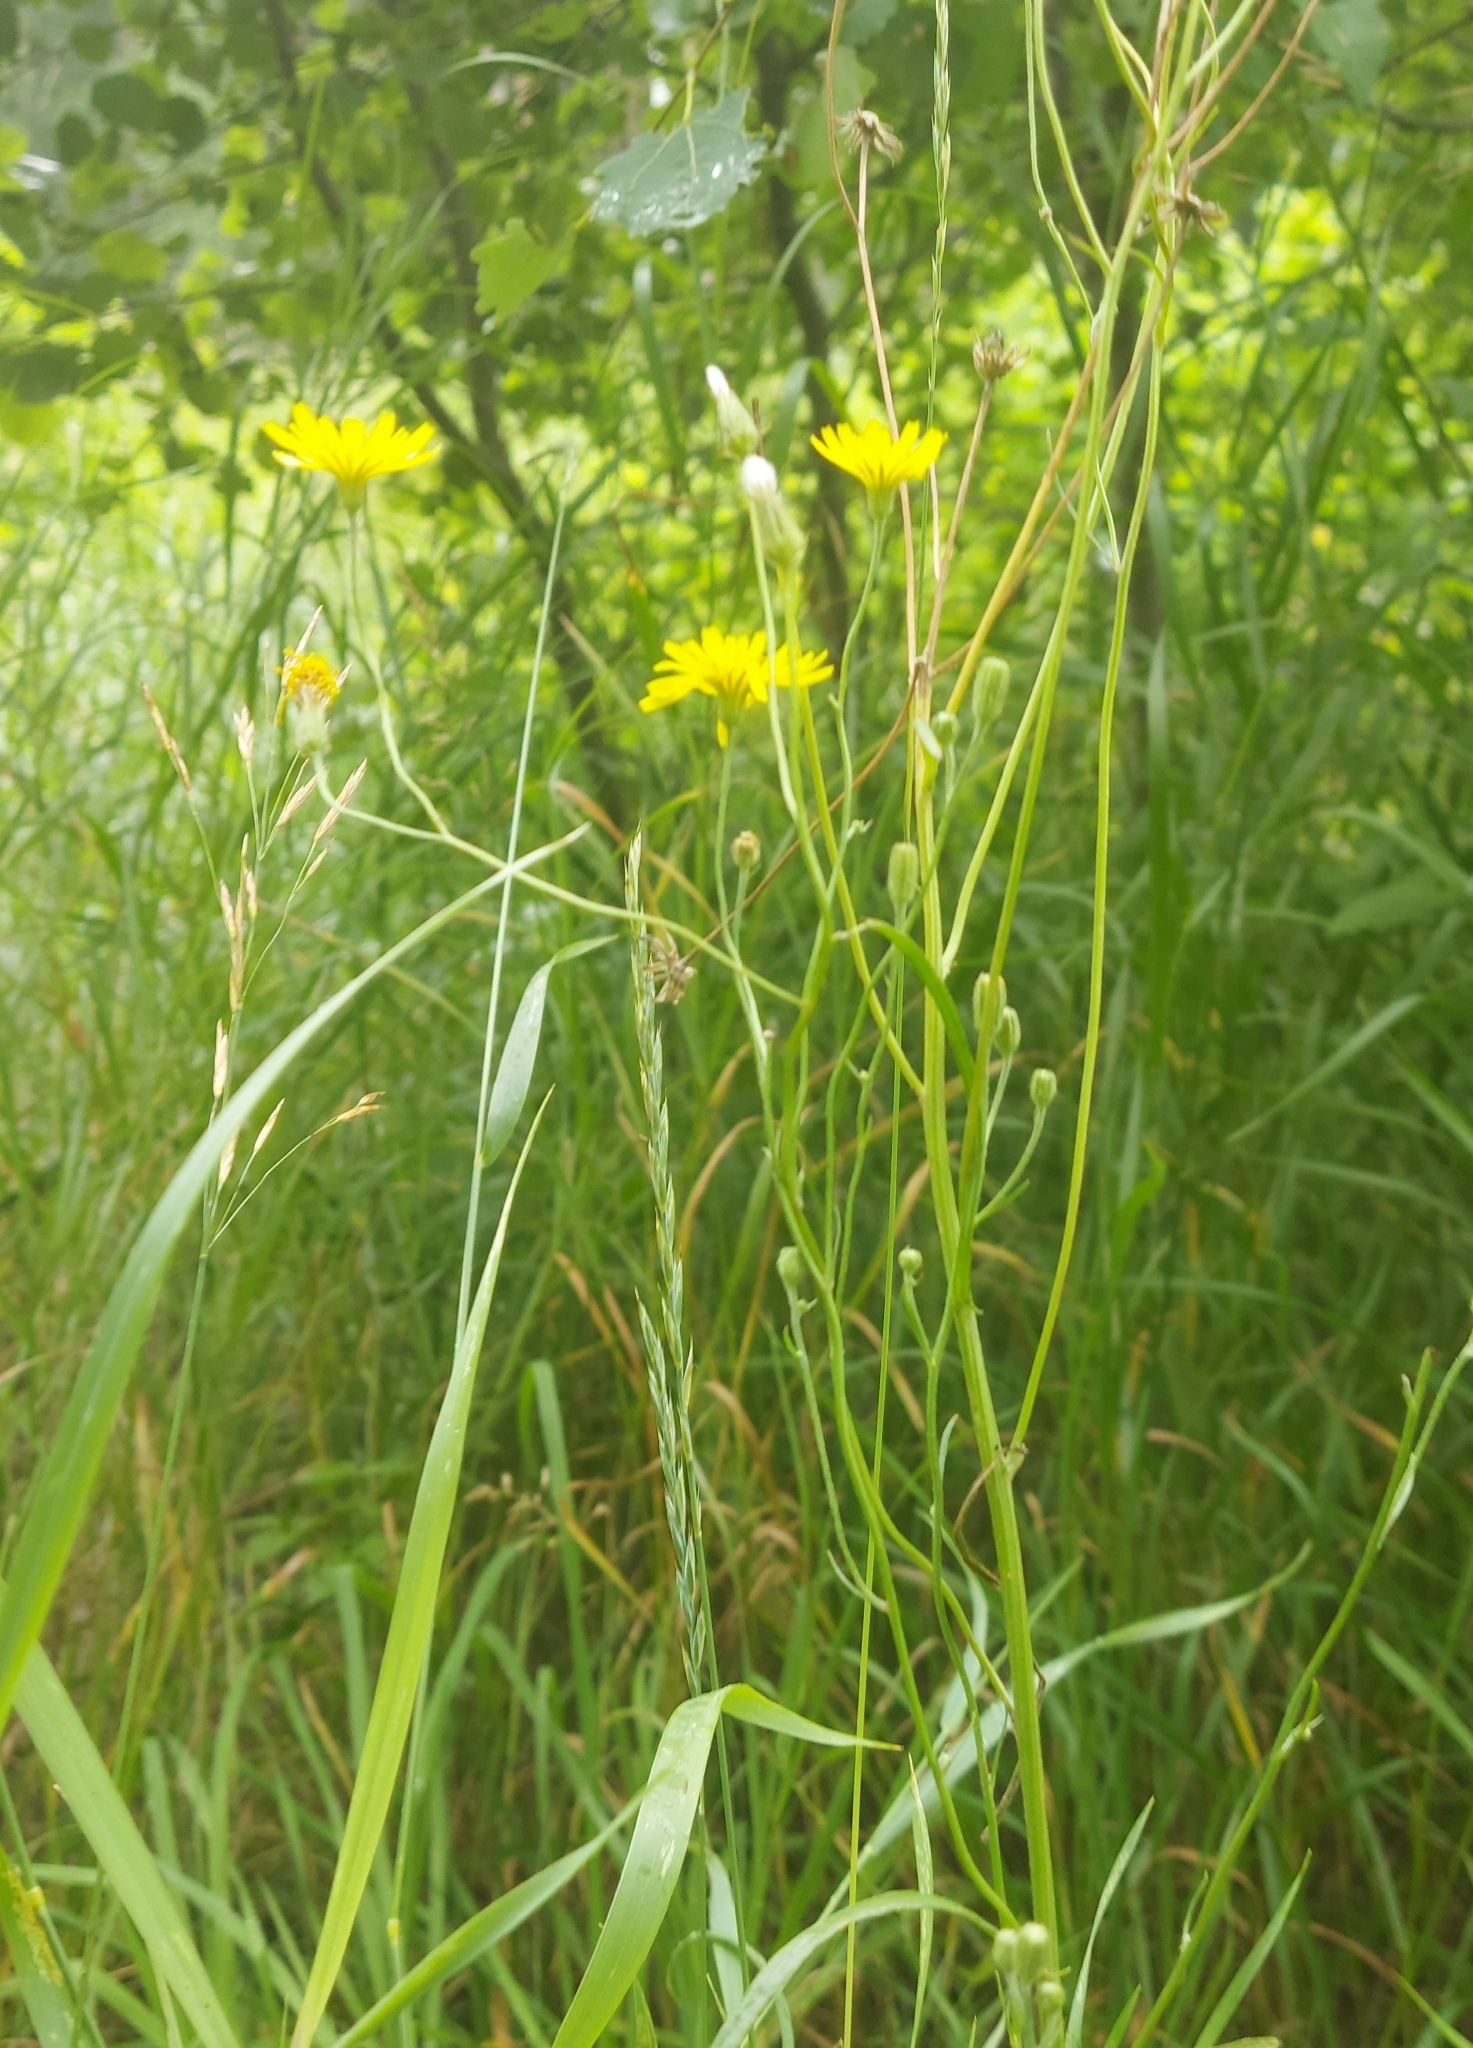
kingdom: Plantae
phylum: Tracheophyta
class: Magnoliopsida
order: Asterales
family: Asteraceae
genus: Crepis
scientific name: Crepis tectorum
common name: Narrow-leaved hawk's-beard
